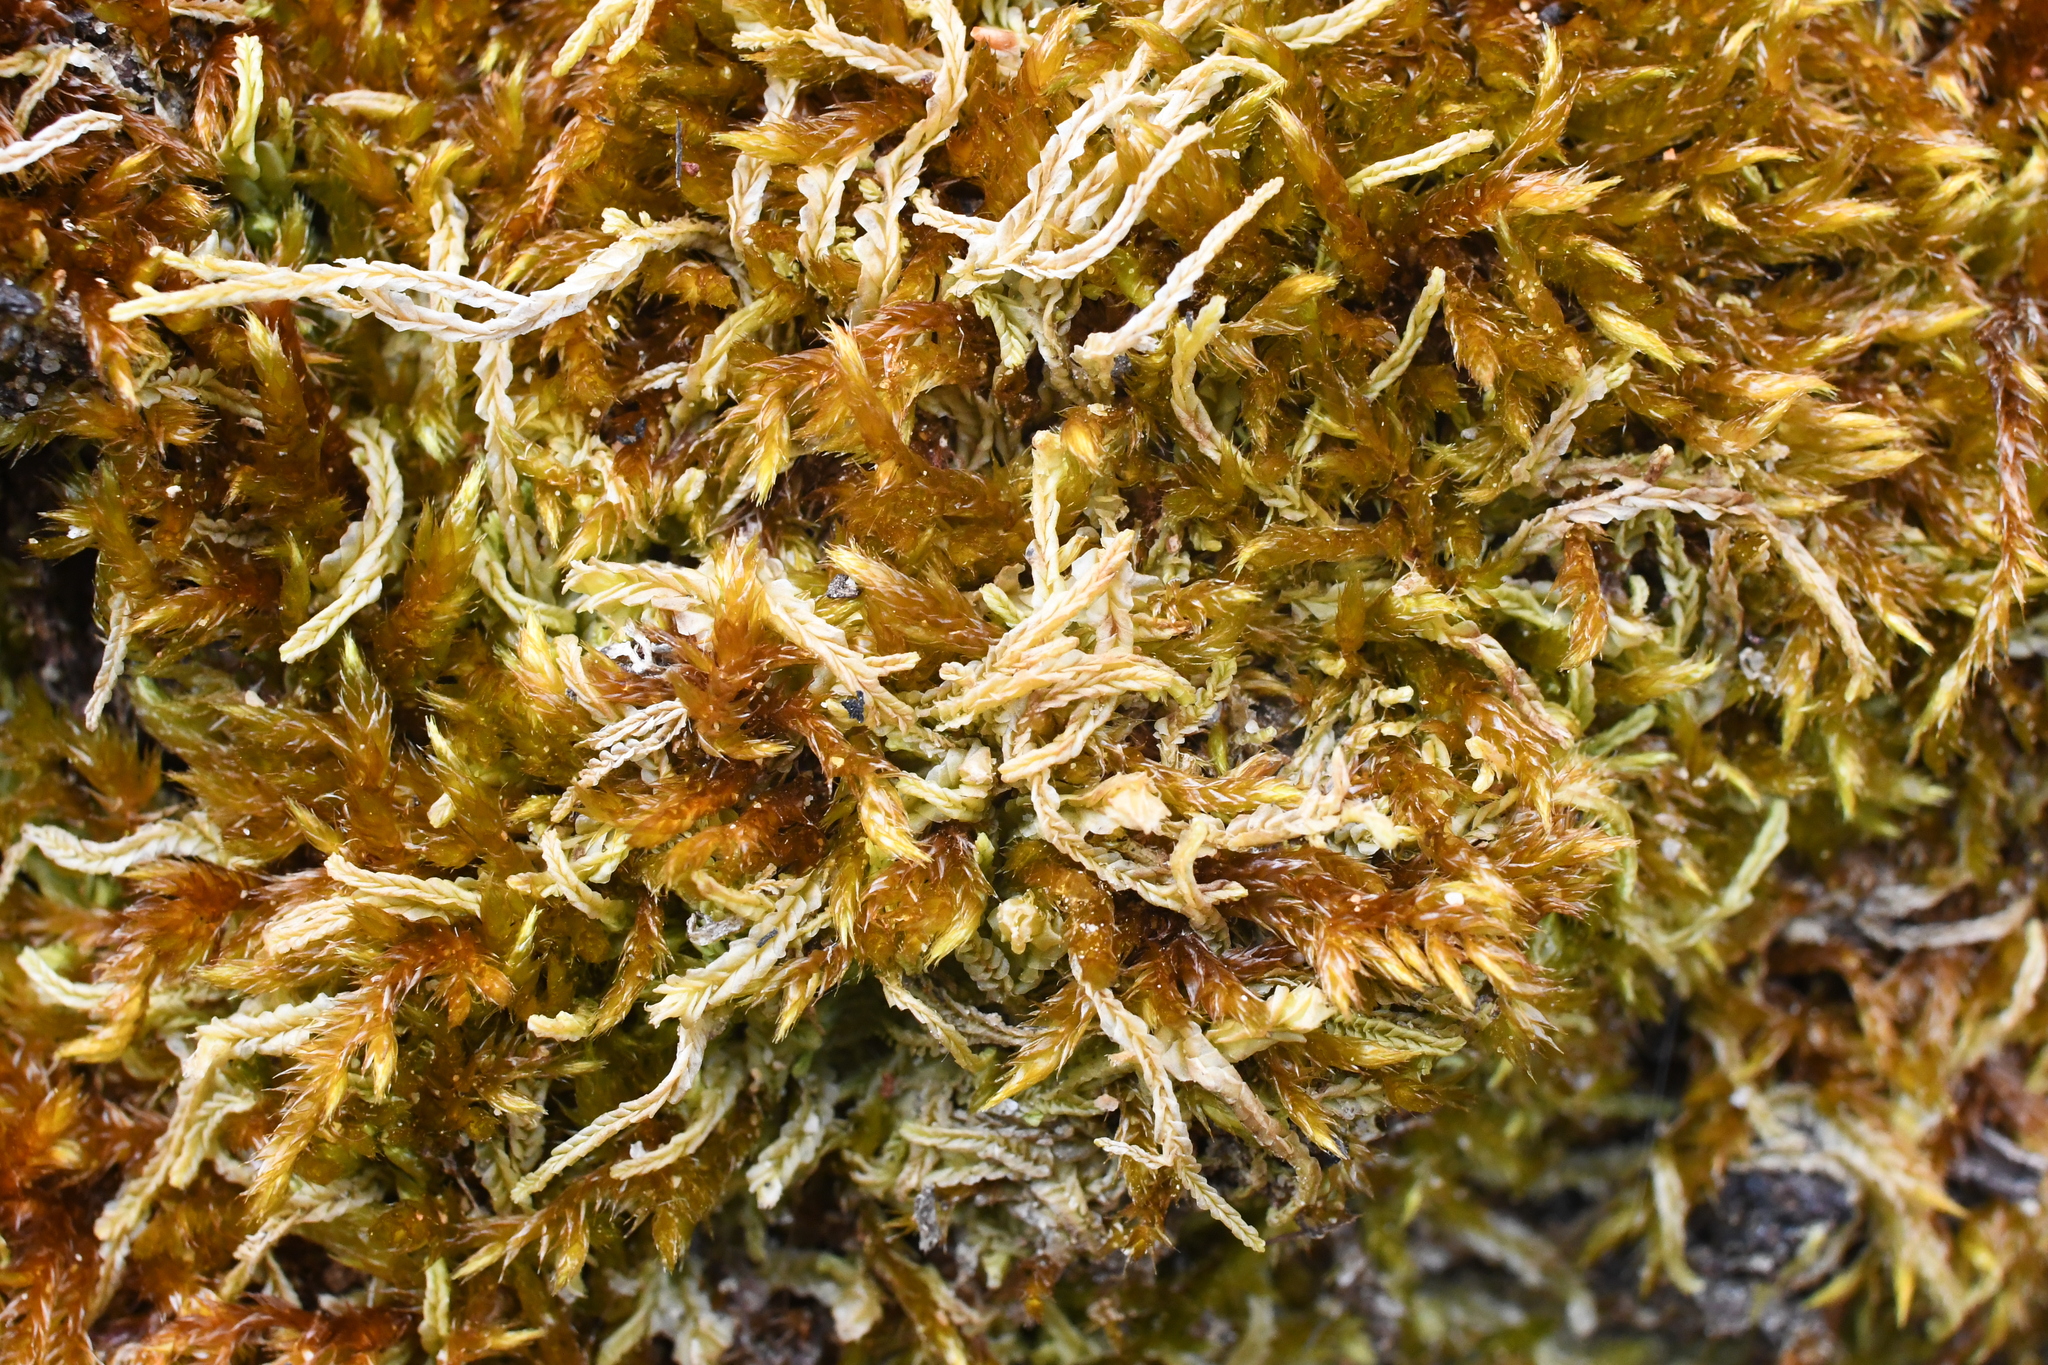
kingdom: Plantae
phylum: Bryophyta
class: Bryopsida
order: Hypnales
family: Sematophyllaceae
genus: Sematophyllum
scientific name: Sematophyllum homomallum
